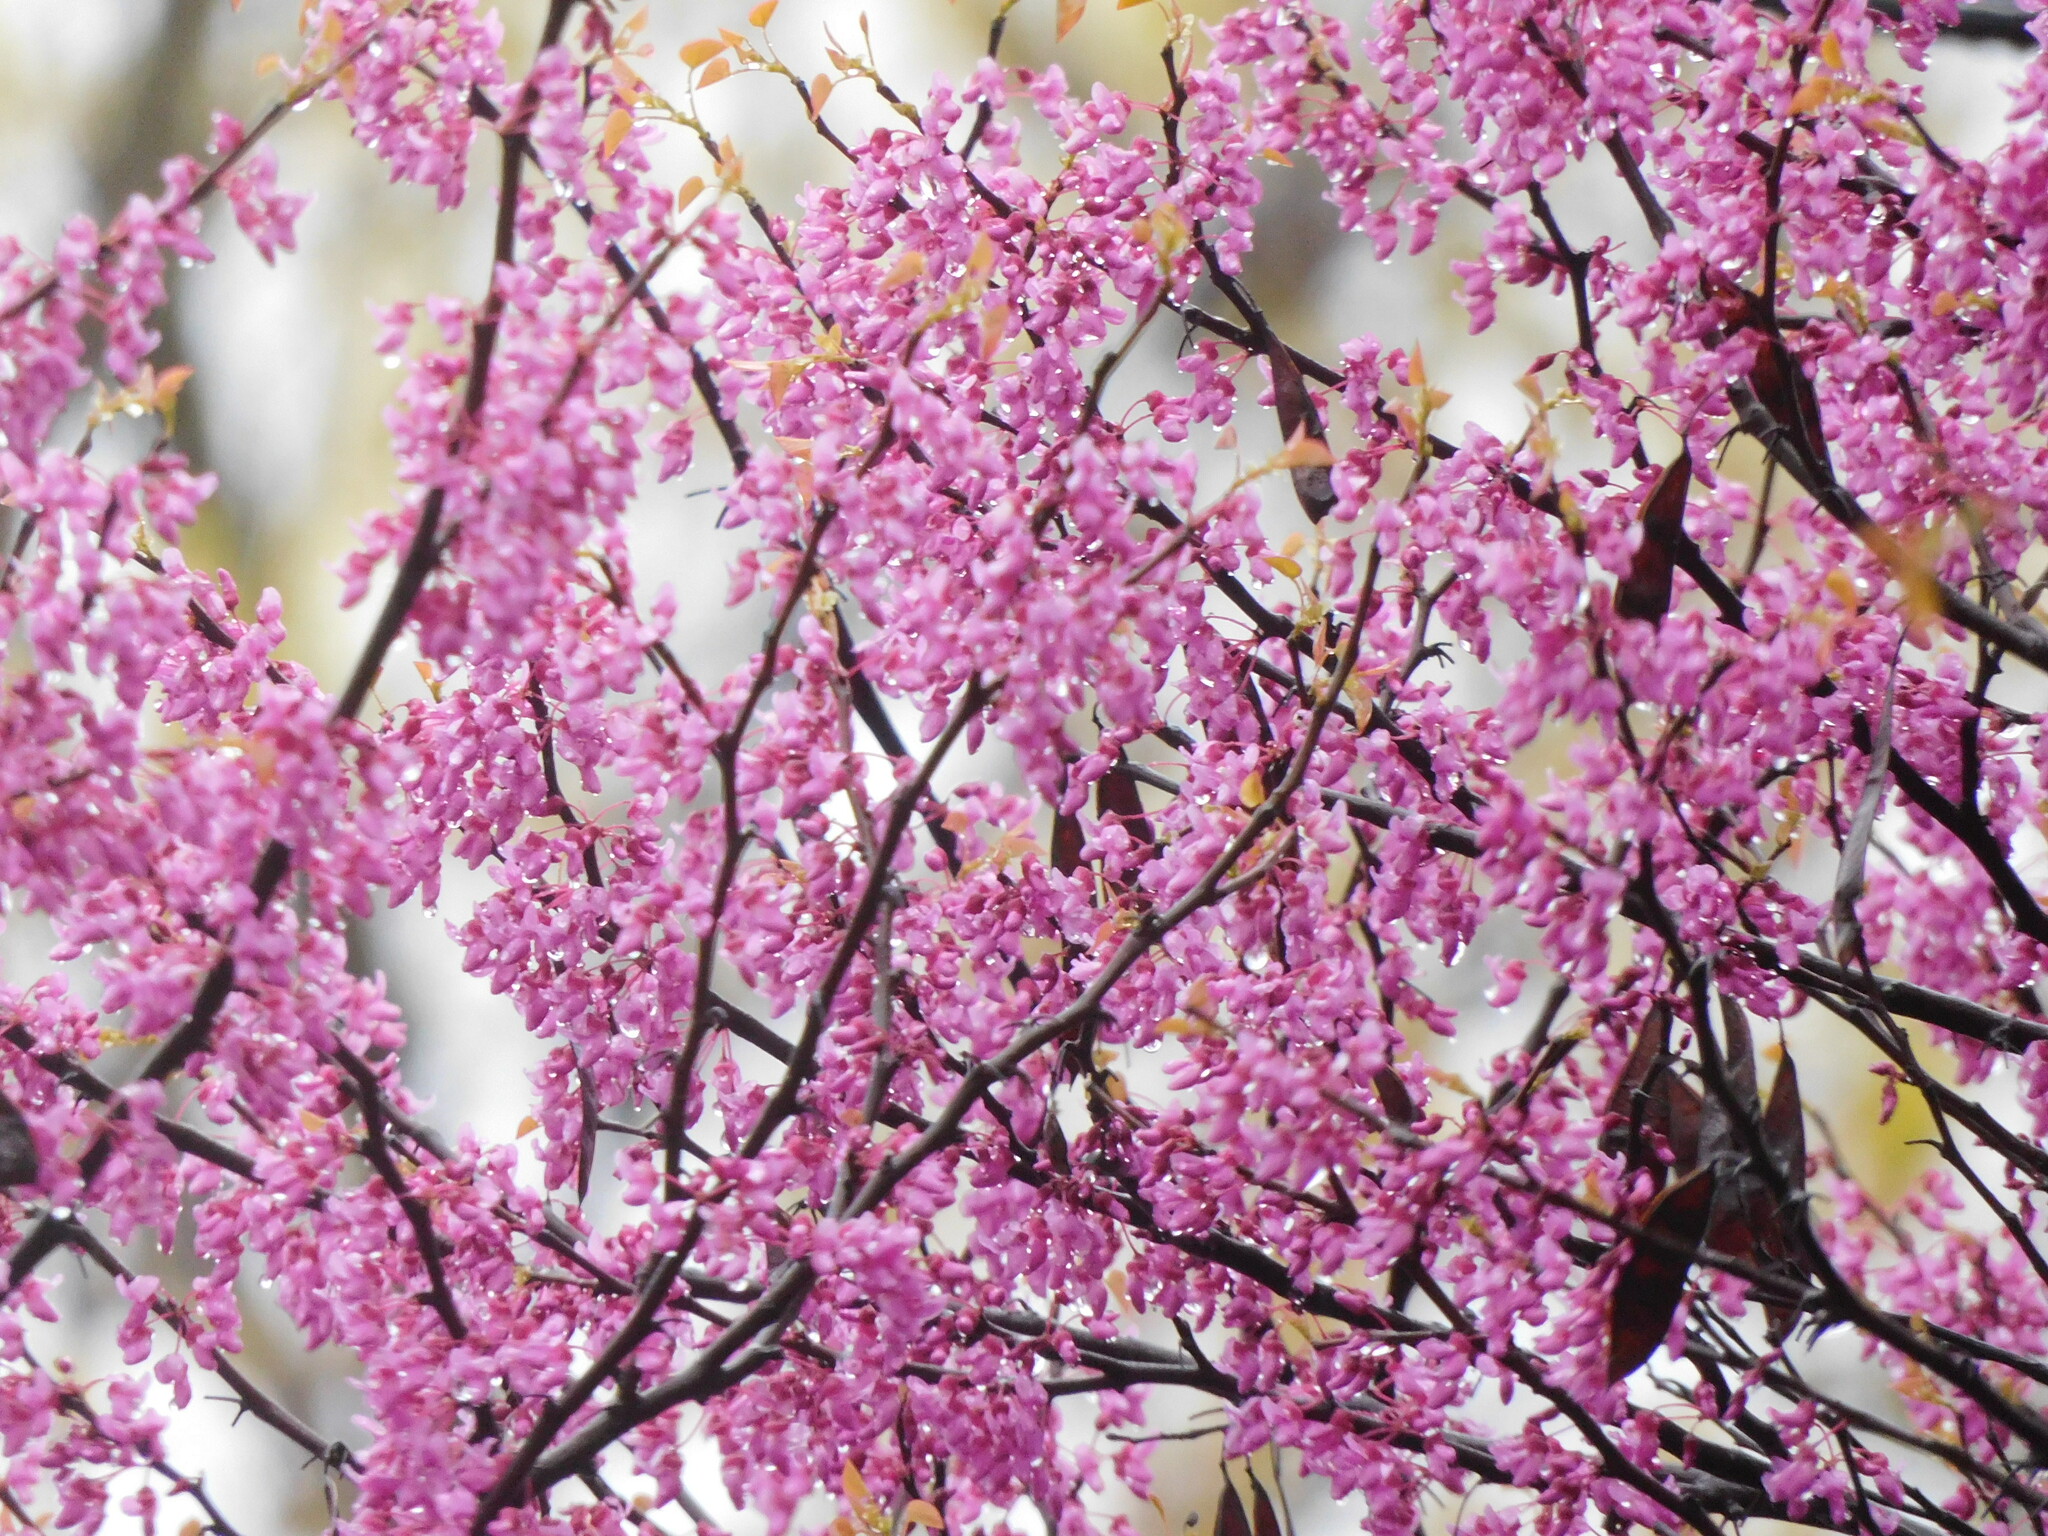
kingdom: Plantae
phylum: Tracheophyta
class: Magnoliopsida
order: Fabales
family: Fabaceae
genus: Cercis
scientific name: Cercis canadensis
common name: Eastern redbud
